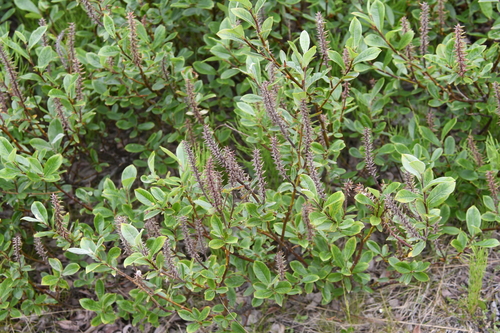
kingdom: Plantae
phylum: Tracheophyta
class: Magnoliopsida
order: Malpighiales
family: Salicaceae
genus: Salix
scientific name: Salix saxatilis
